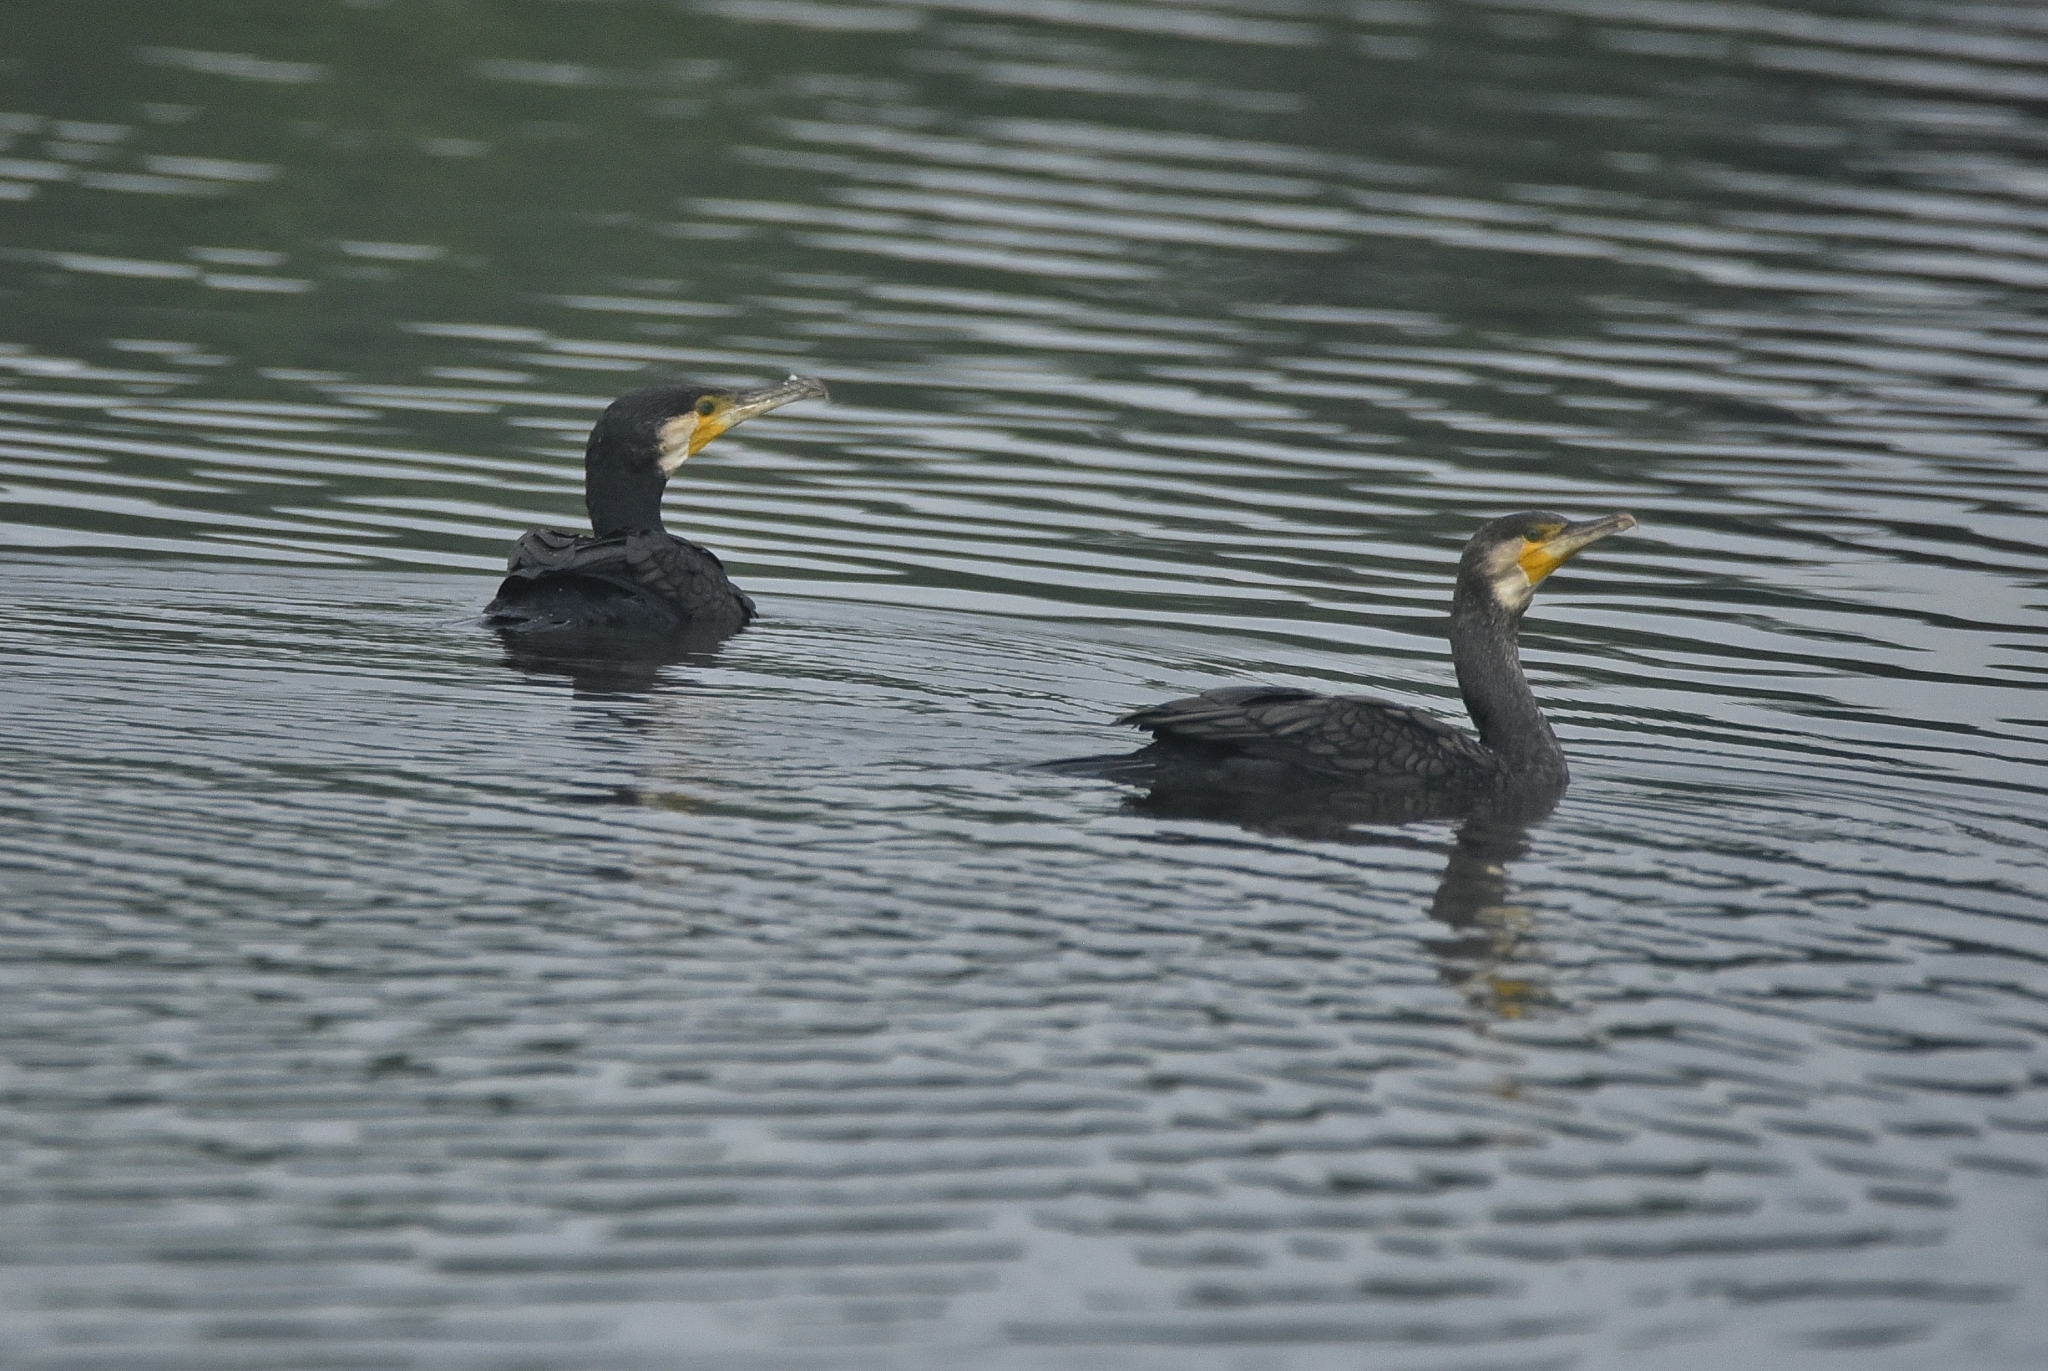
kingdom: Animalia
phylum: Chordata
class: Aves
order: Suliformes
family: Phalacrocoracidae
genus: Phalacrocorax
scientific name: Phalacrocorax carbo
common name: Great cormorant
